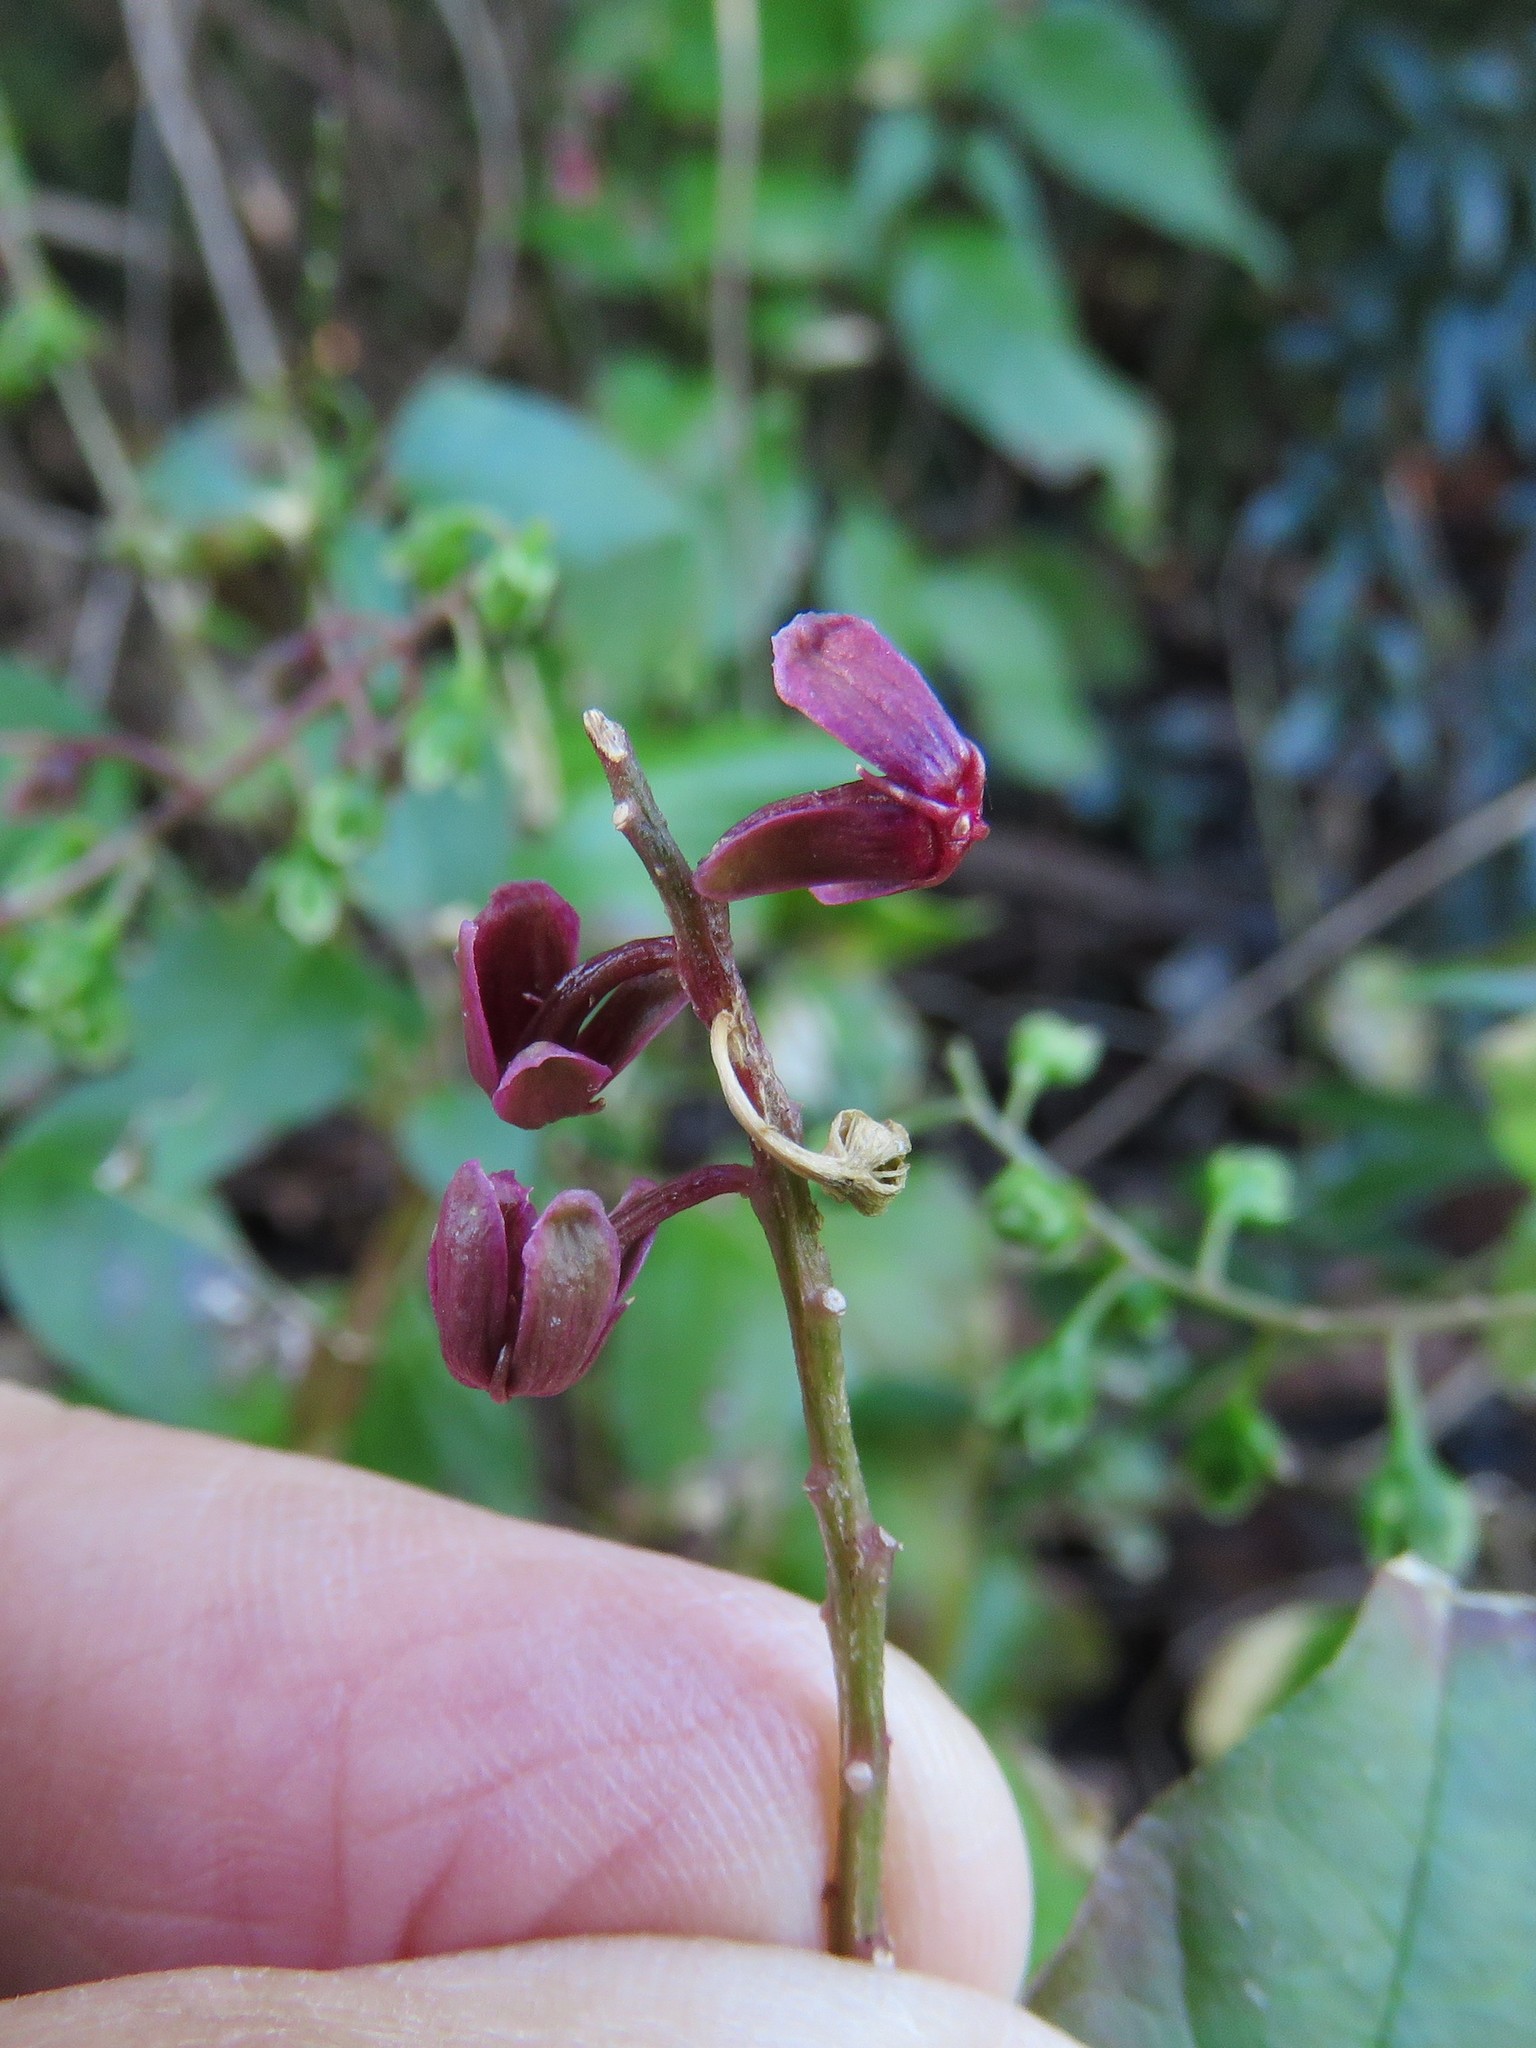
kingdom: Plantae
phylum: Tracheophyta
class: Magnoliopsida
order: Caryophyllales
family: Phytolaccaceae
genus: Rivina
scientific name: Rivina humilis
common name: Rougeplant
